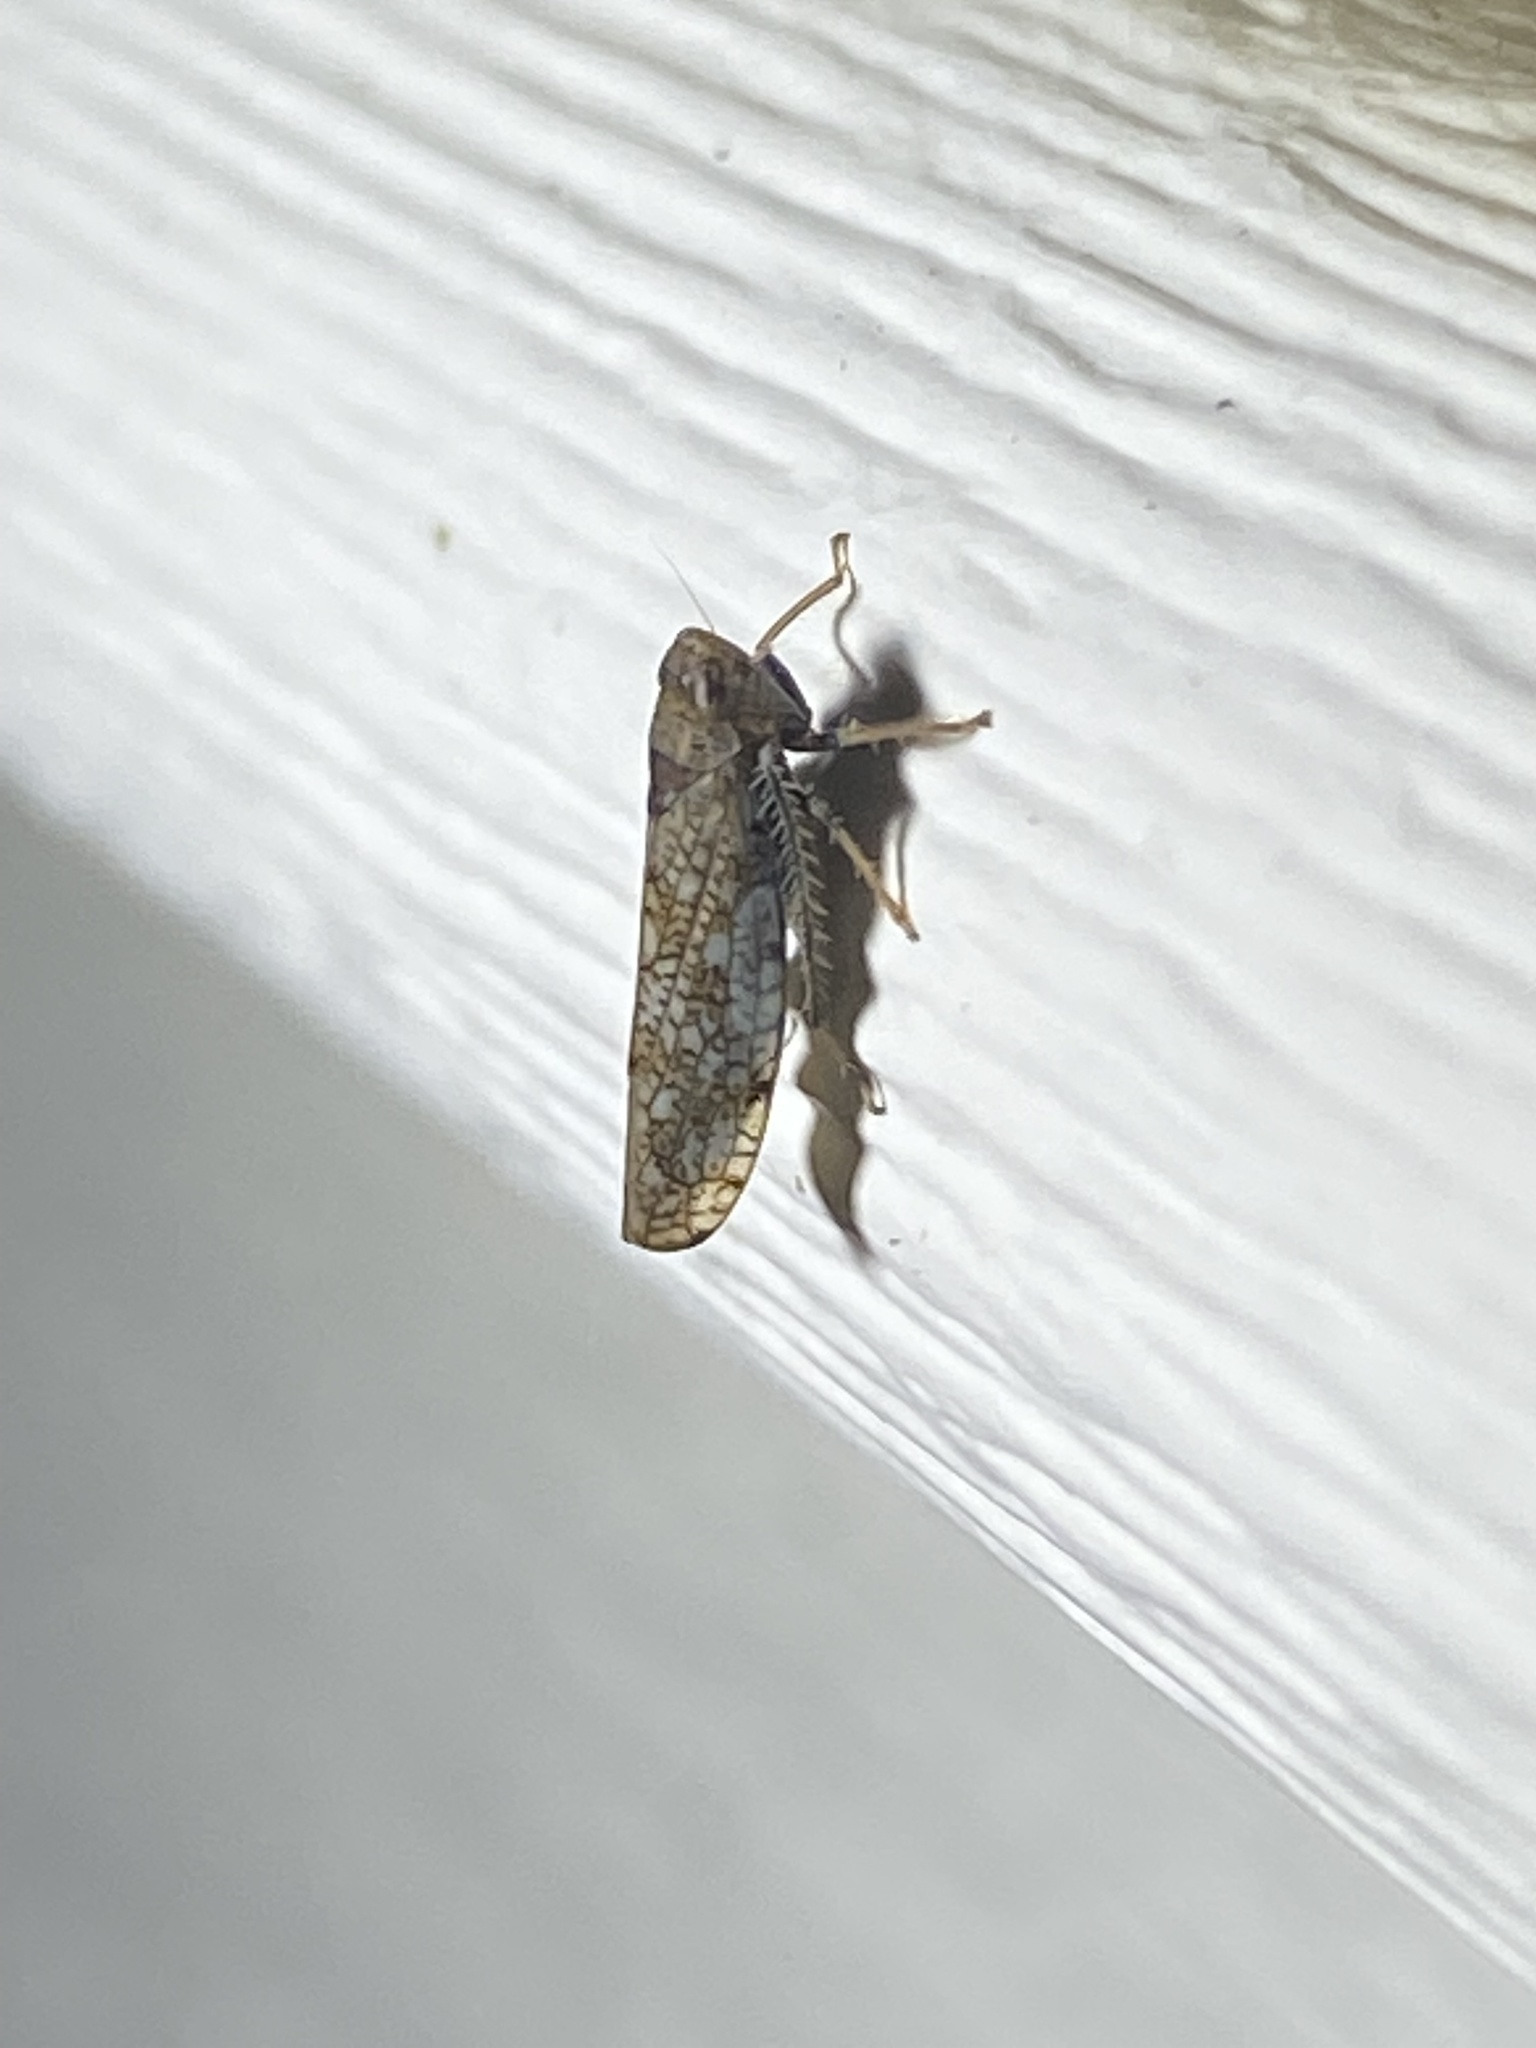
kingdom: Animalia
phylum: Arthropoda
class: Insecta
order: Hemiptera
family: Cicadellidae
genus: Orientus
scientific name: Orientus ishidae
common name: Japanese leafhopper
